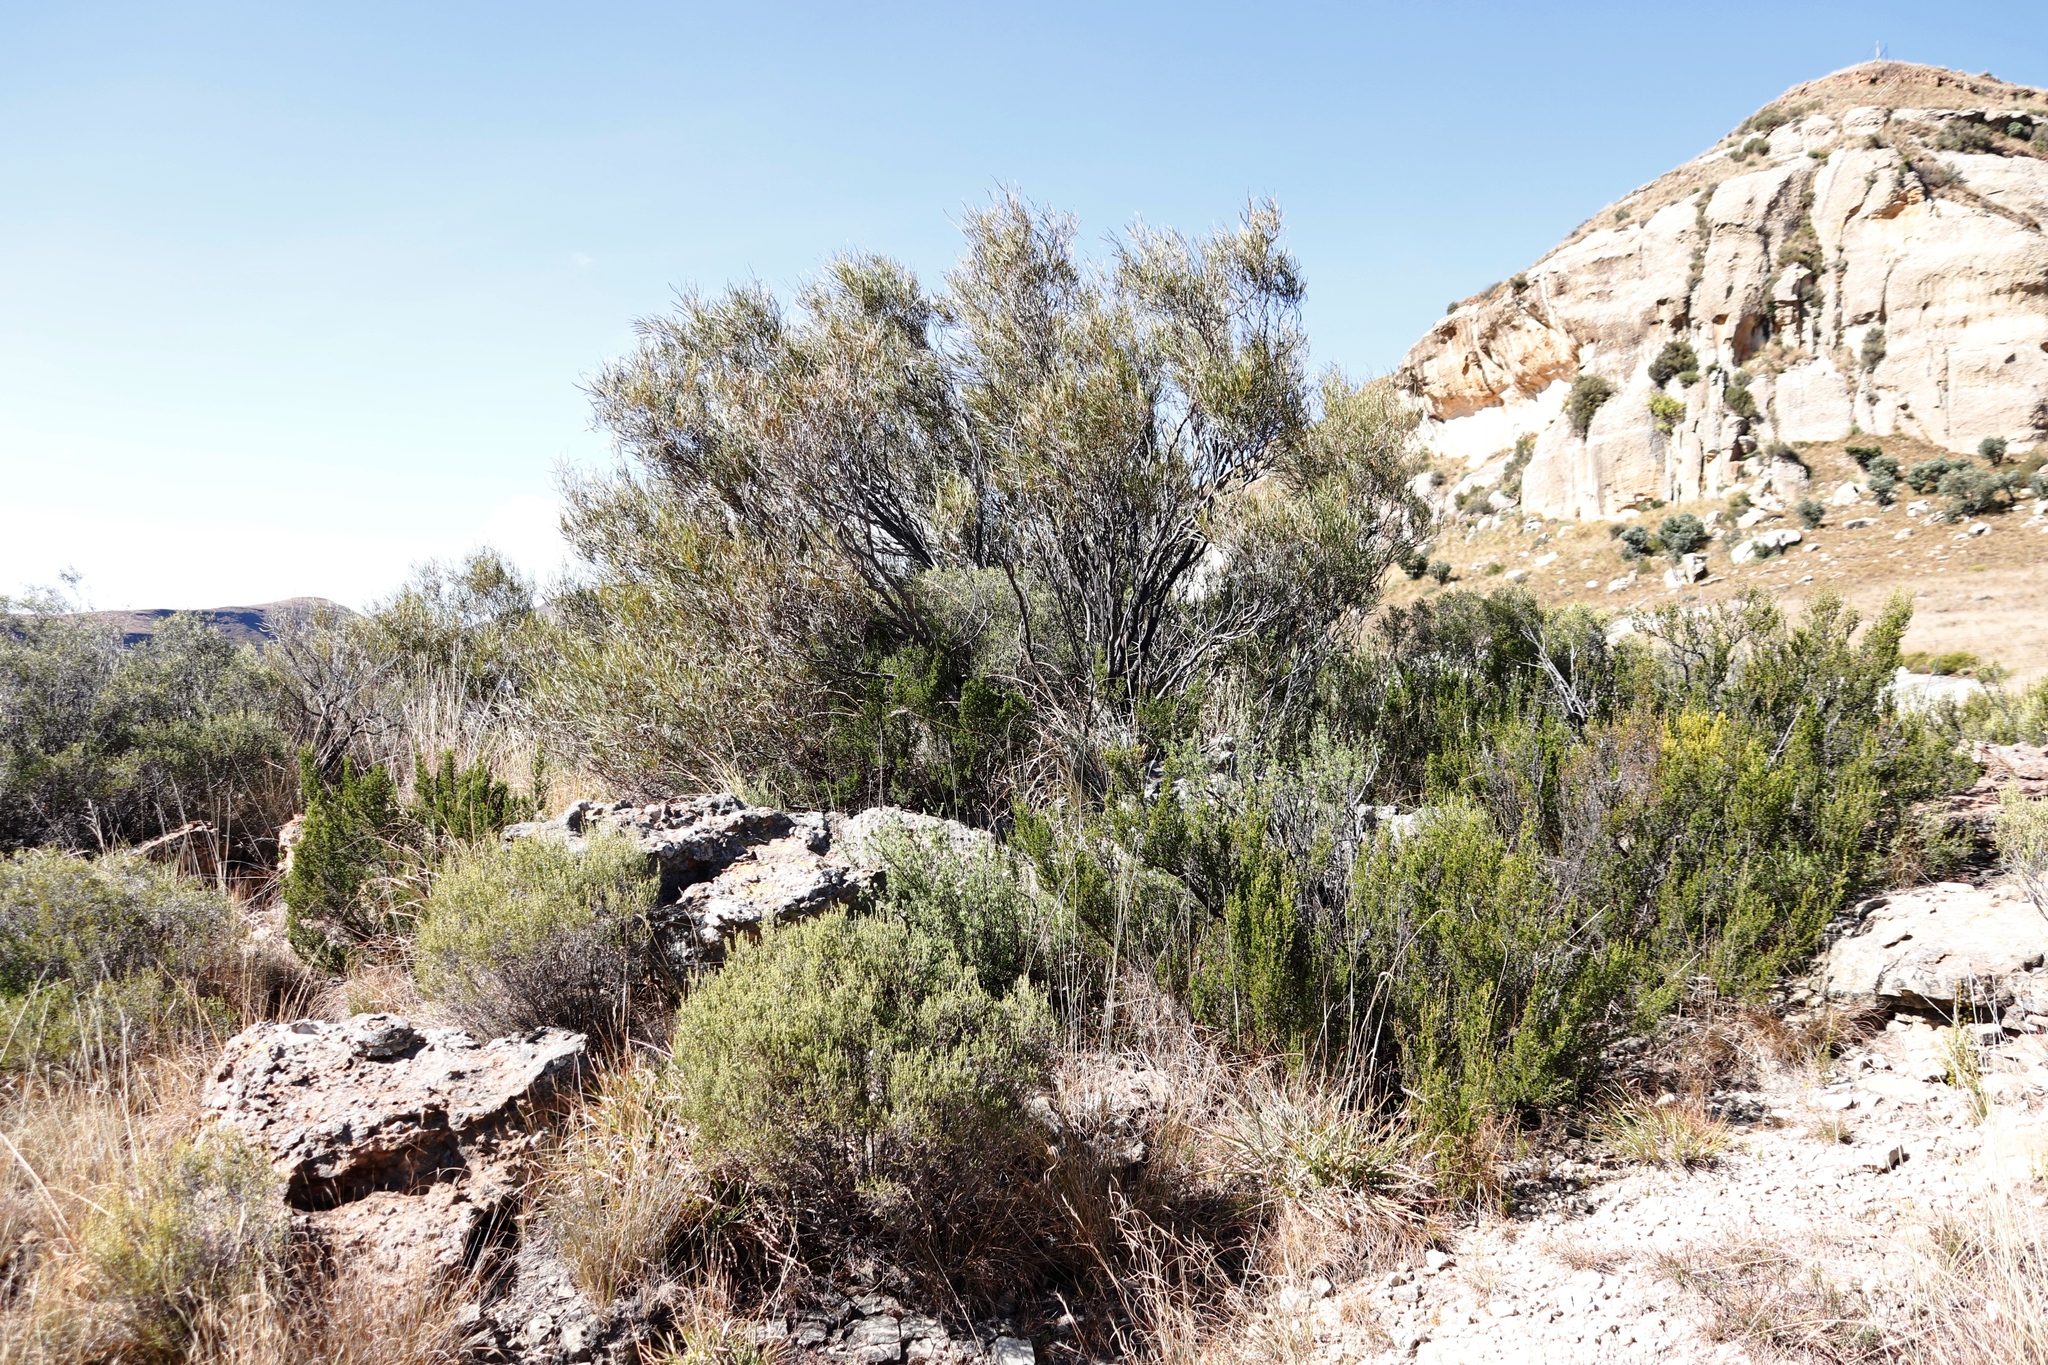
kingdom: Plantae
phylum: Tracheophyta
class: Magnoliopsida
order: Sapindales
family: Anacardiaceae
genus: Searsia
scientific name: Searsia erosa
